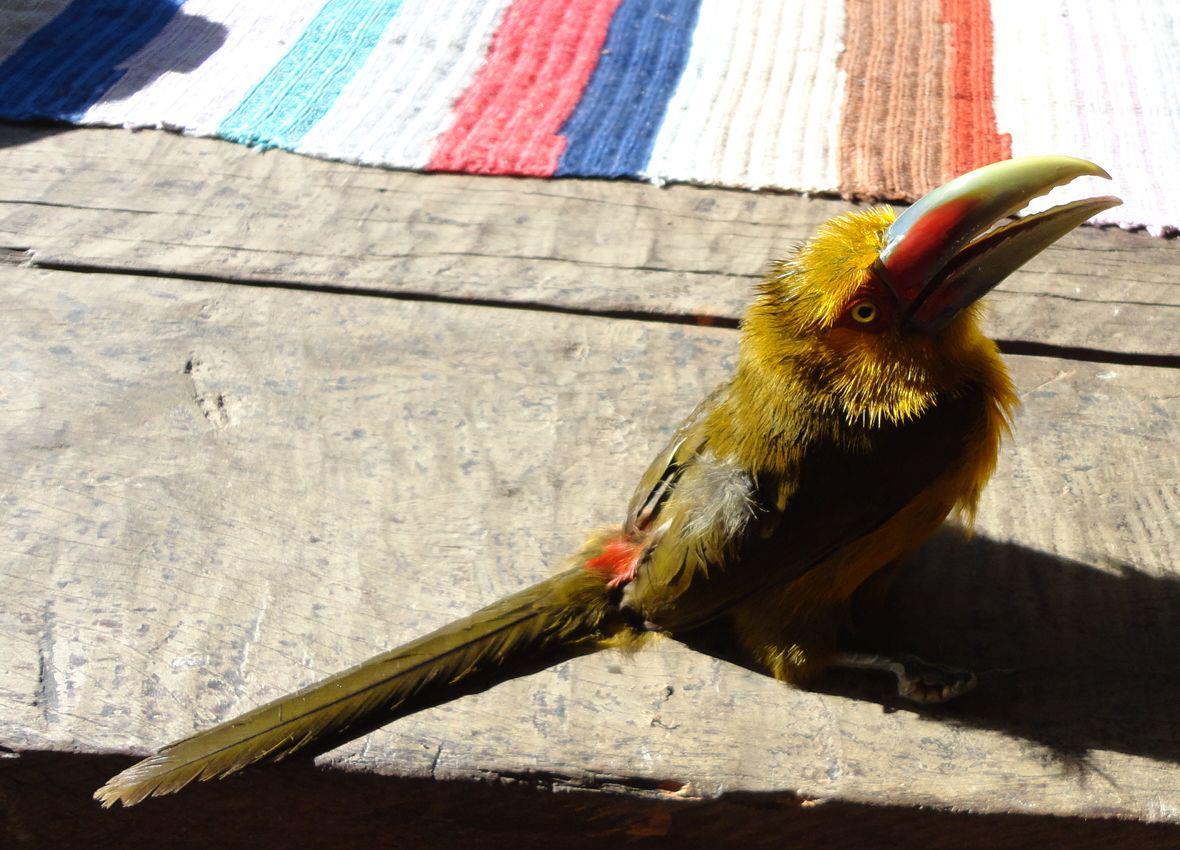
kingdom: Animalia
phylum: Chordata
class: Aves
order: Piciformes
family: Ramphastidae
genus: Pteroglossus
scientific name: Pteroglossus bailloni
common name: Saffron toucanet
